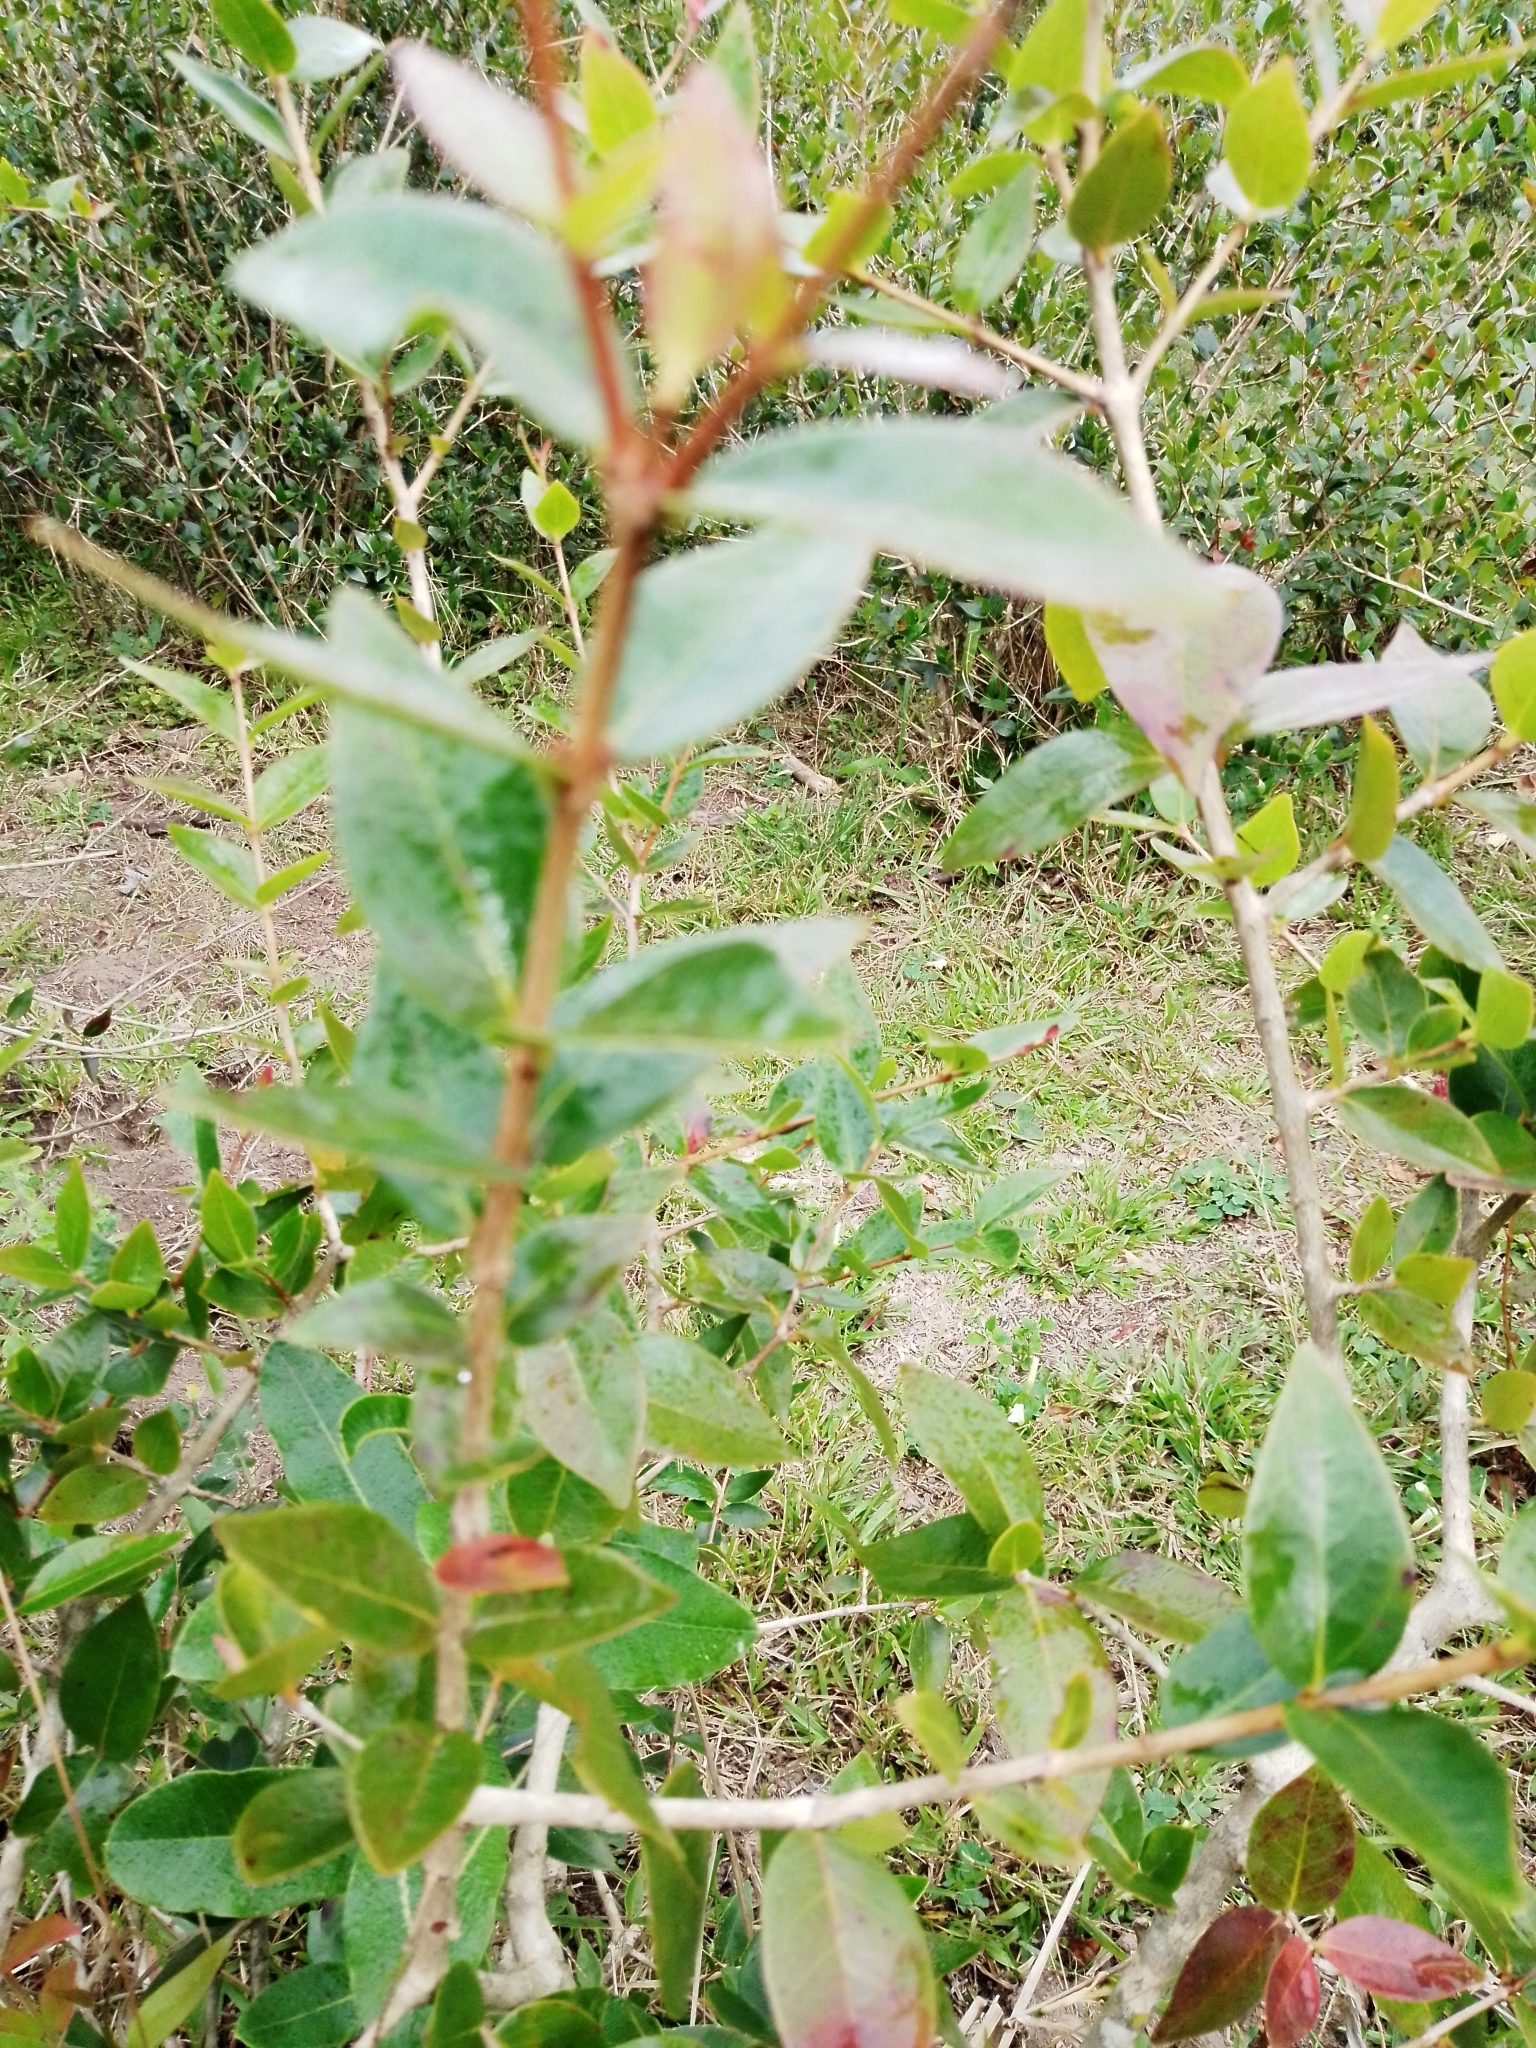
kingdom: Plantae
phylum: Tracheophyta
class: Magnoliopsida
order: Myrtales
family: Myrtaceae
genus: Eugenia
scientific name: Eugenia uniflora
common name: Surinam cherry
